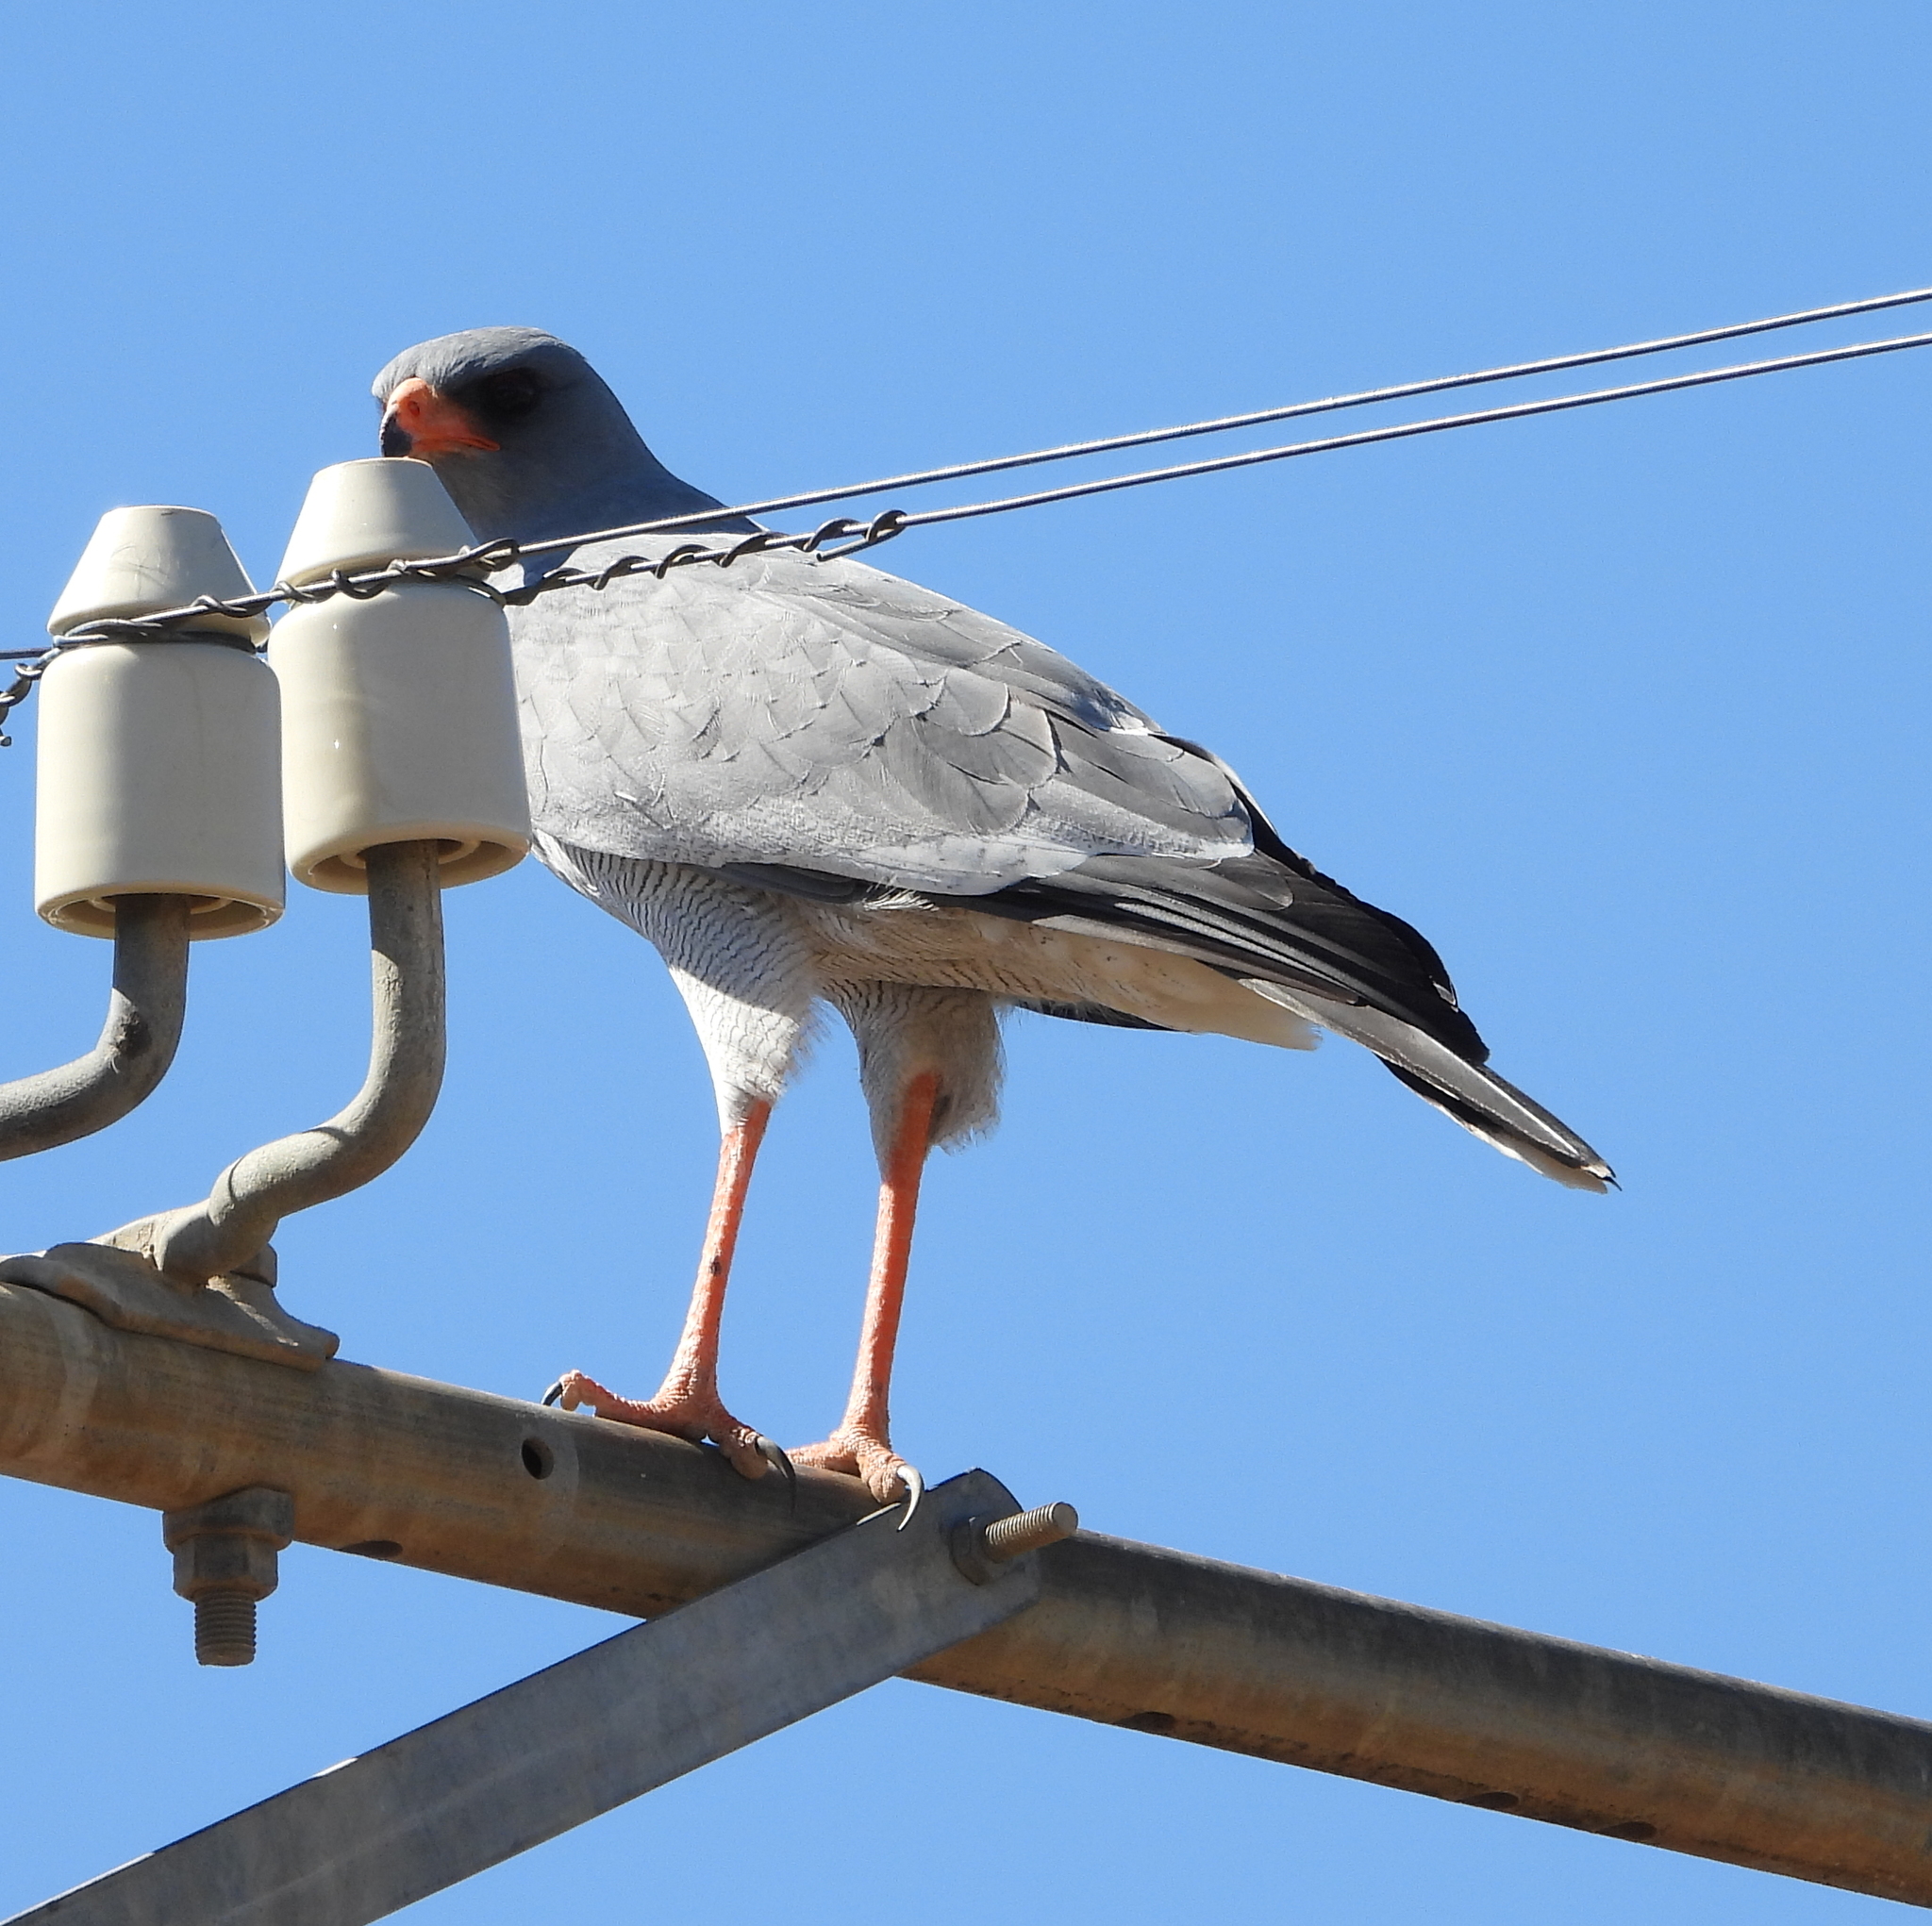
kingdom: Animalia
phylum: Chordata
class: Aves
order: Accipitriformes
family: Accipitridae
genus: Melierax
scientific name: Melierax canorus
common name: Pale chanting-goshawk
